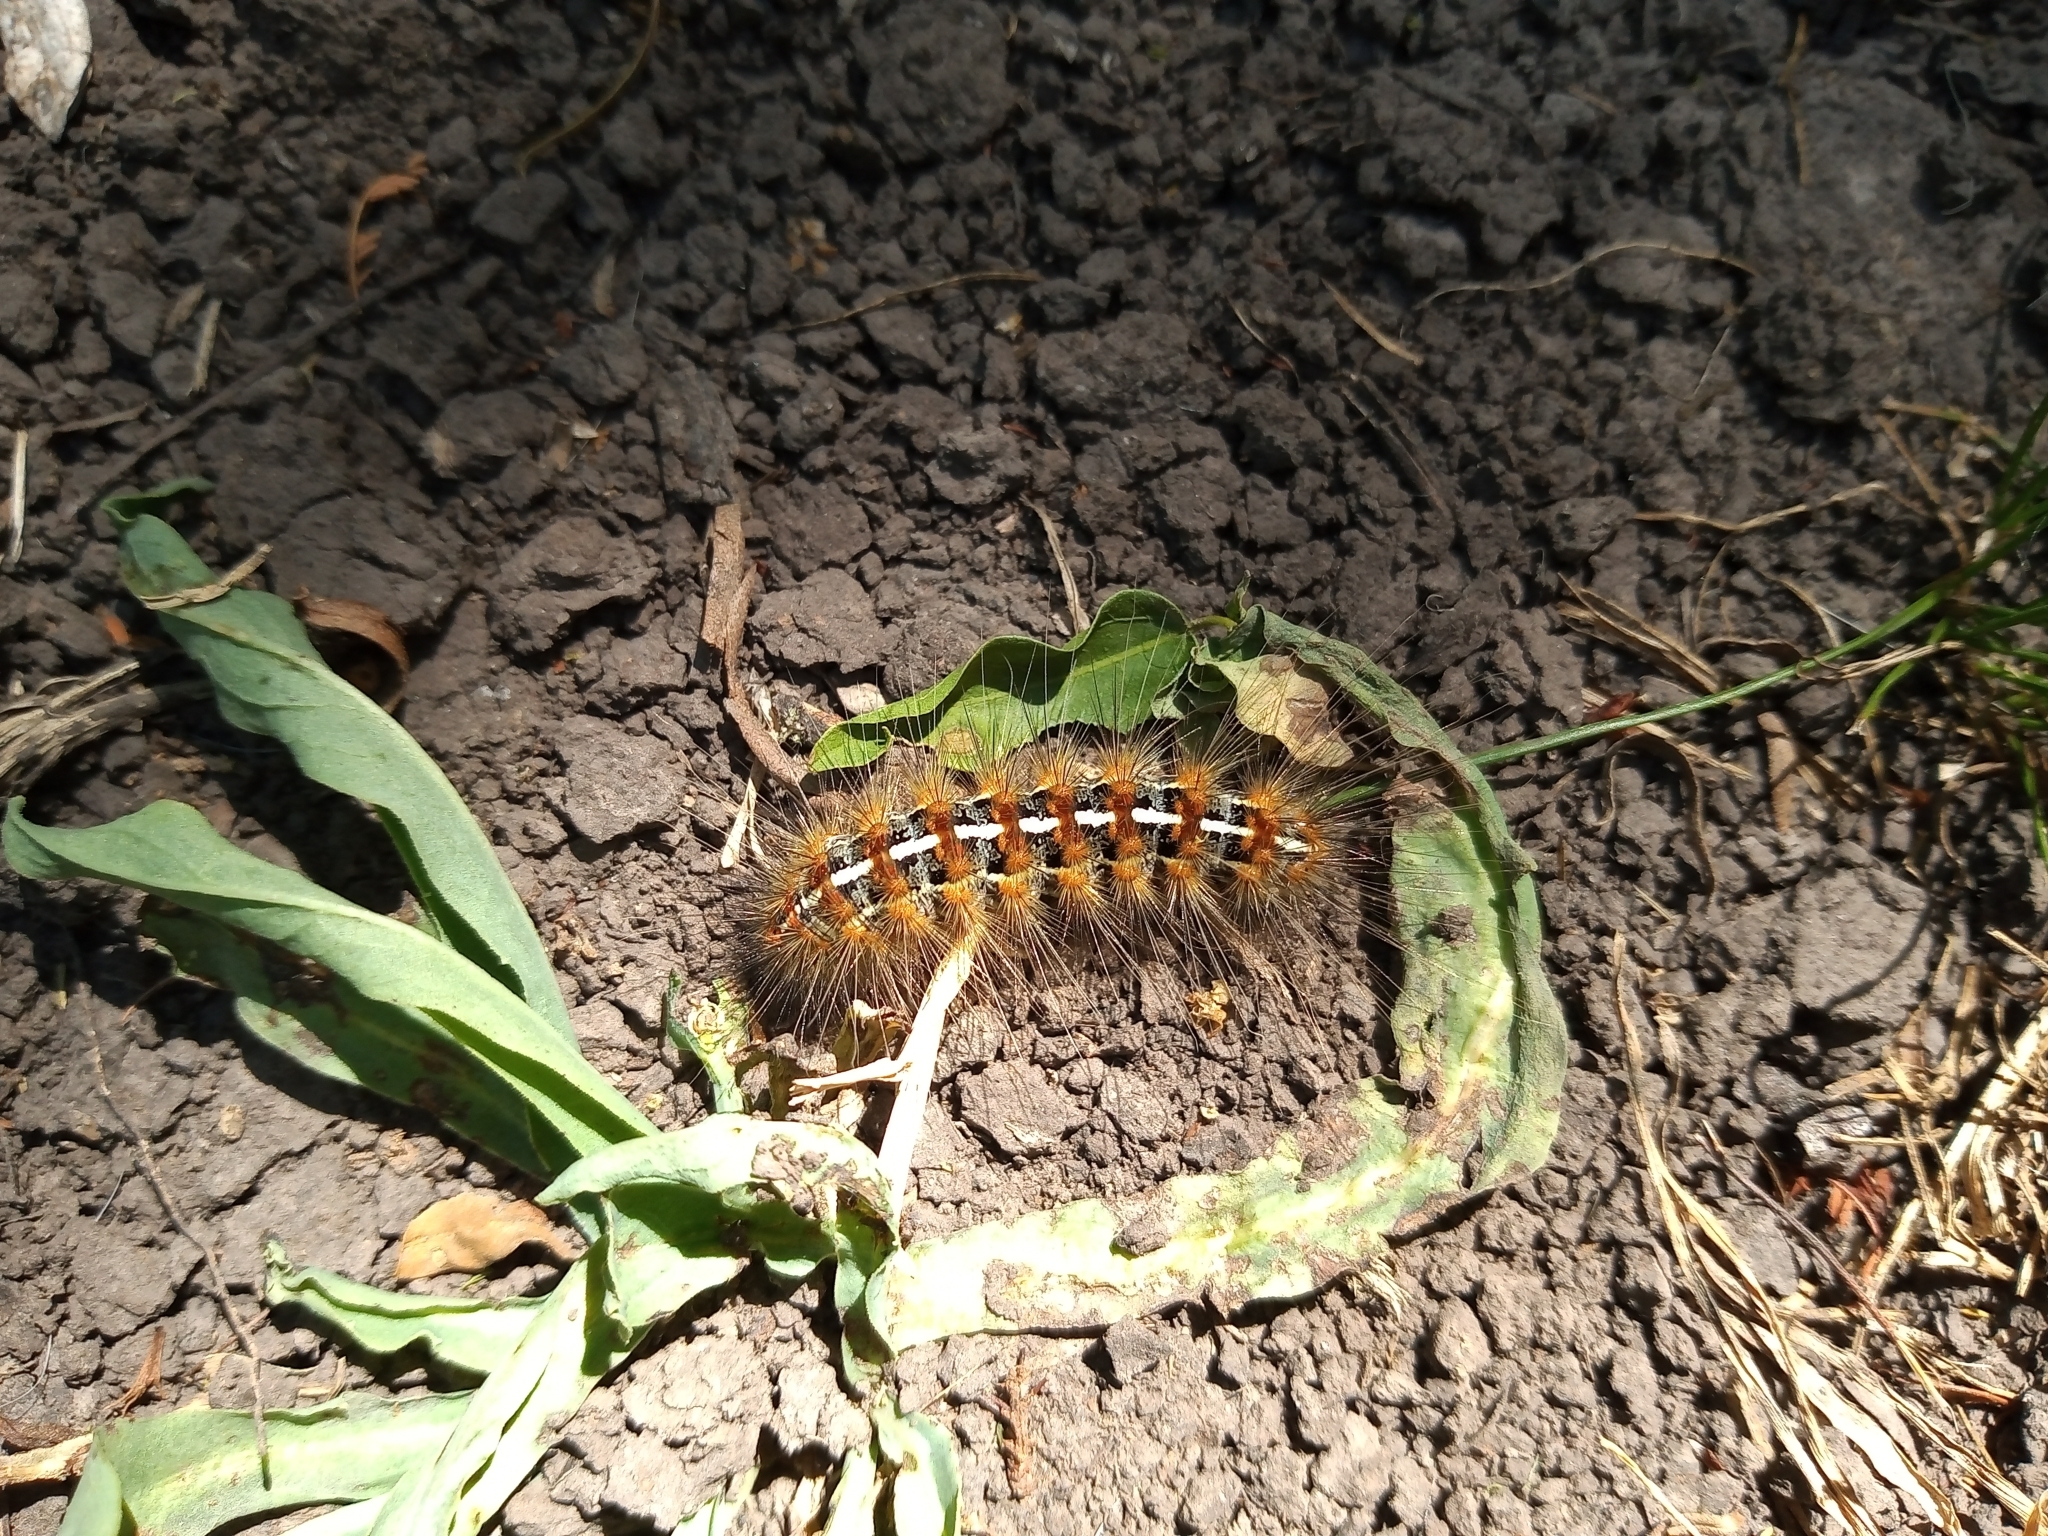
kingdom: Animalia
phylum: Arthropoda
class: Insecta
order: Lepidoptera
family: Erebidae
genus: Paracles
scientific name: Paracles deserticola
